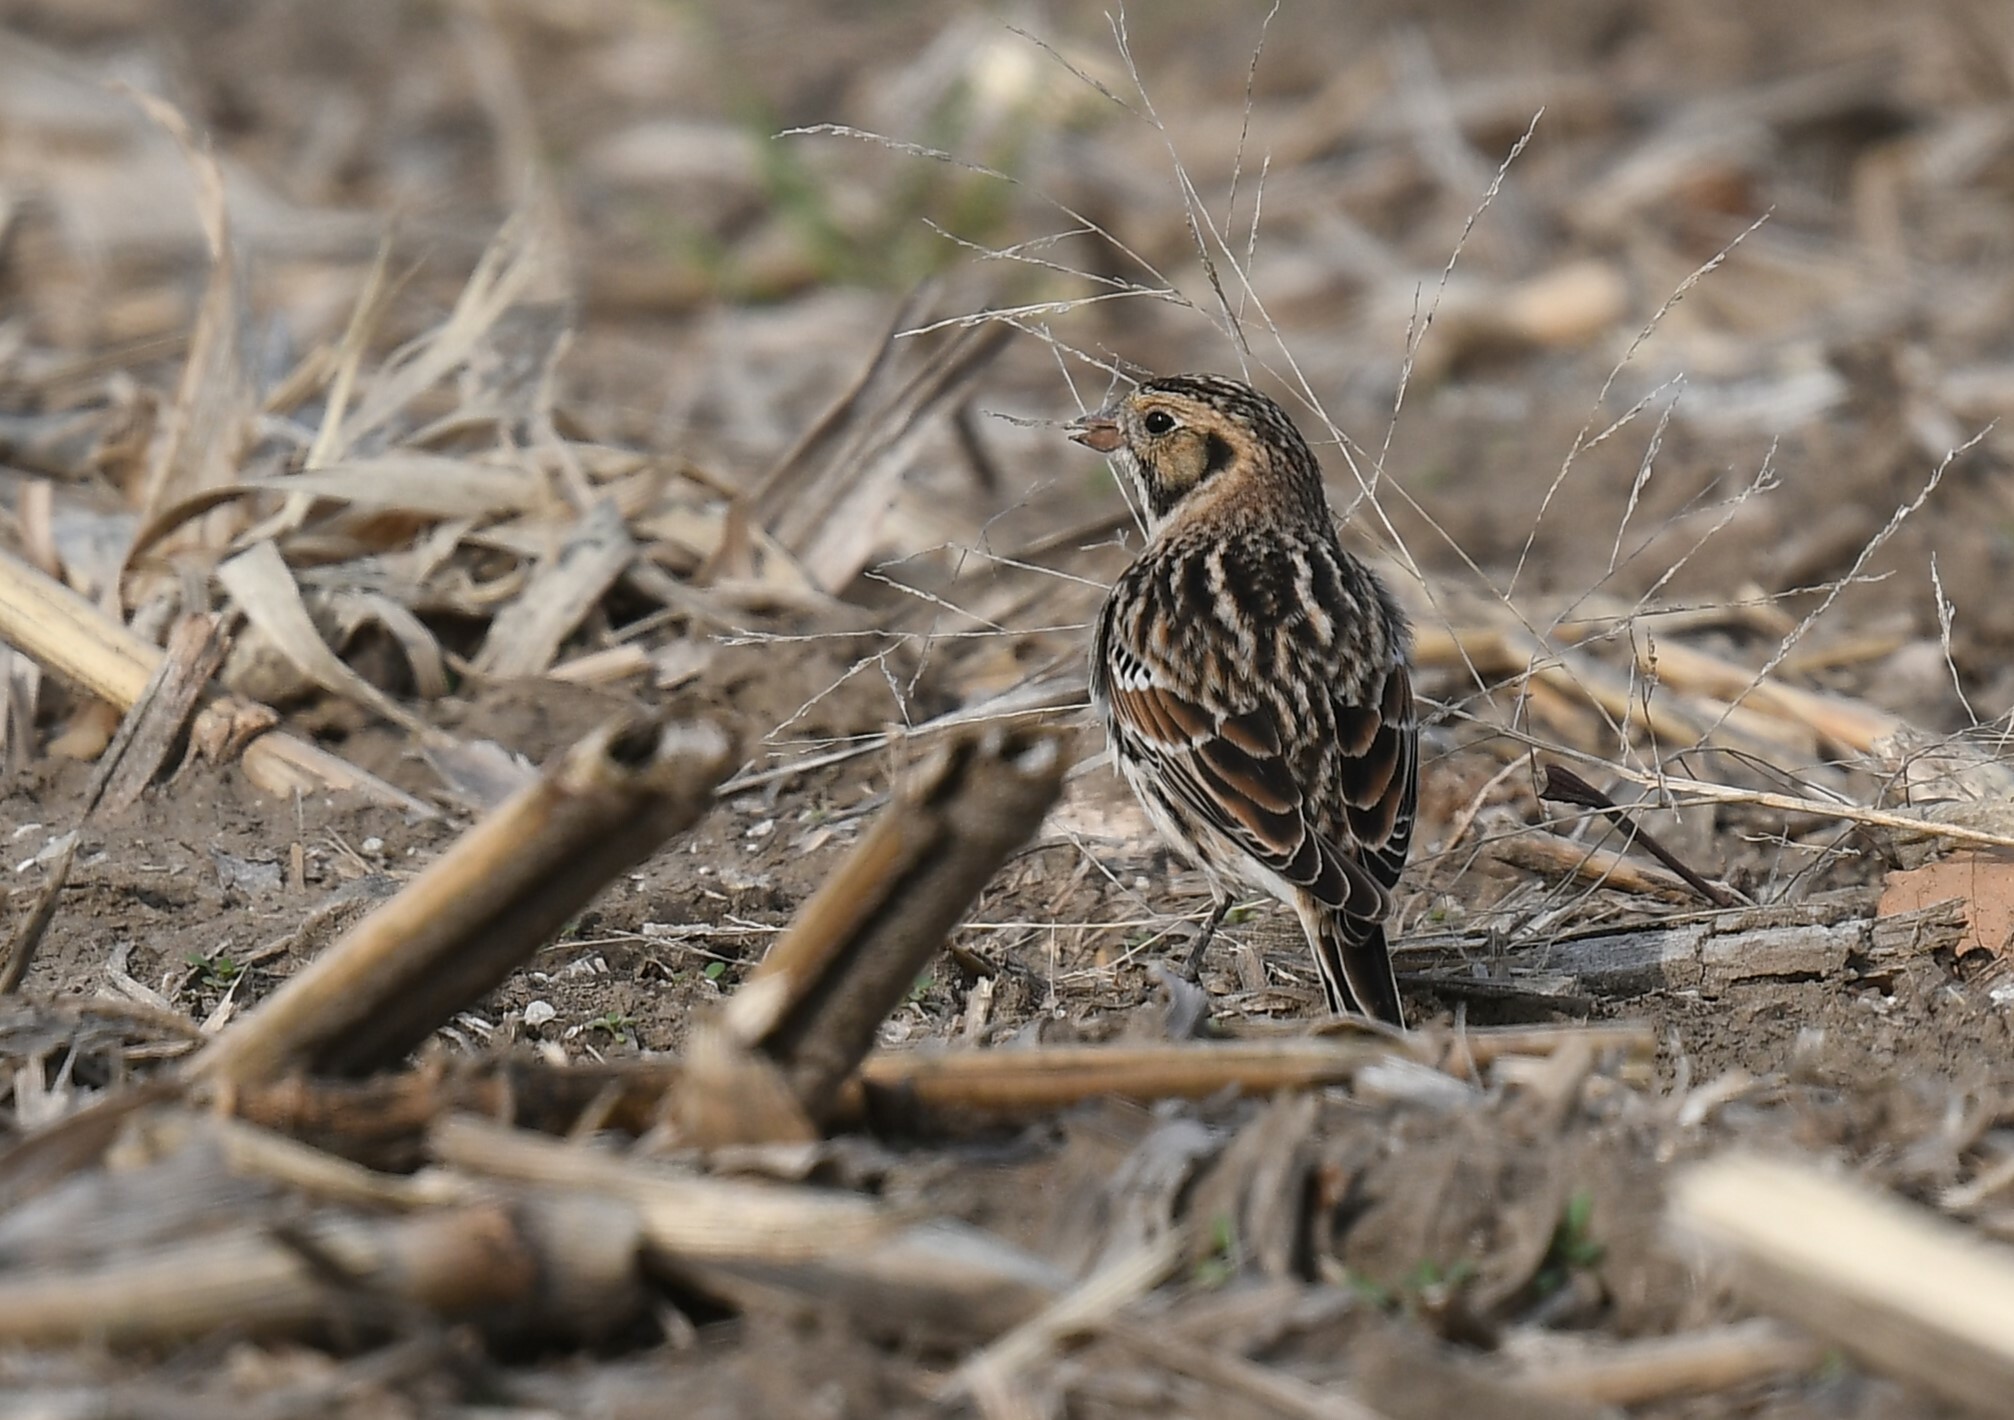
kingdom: Animalia
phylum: Chordata
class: Aves
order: Passeriformes
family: Calcariidae
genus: Calcarius
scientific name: Calcarius lapponicus
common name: Lapland longspur
